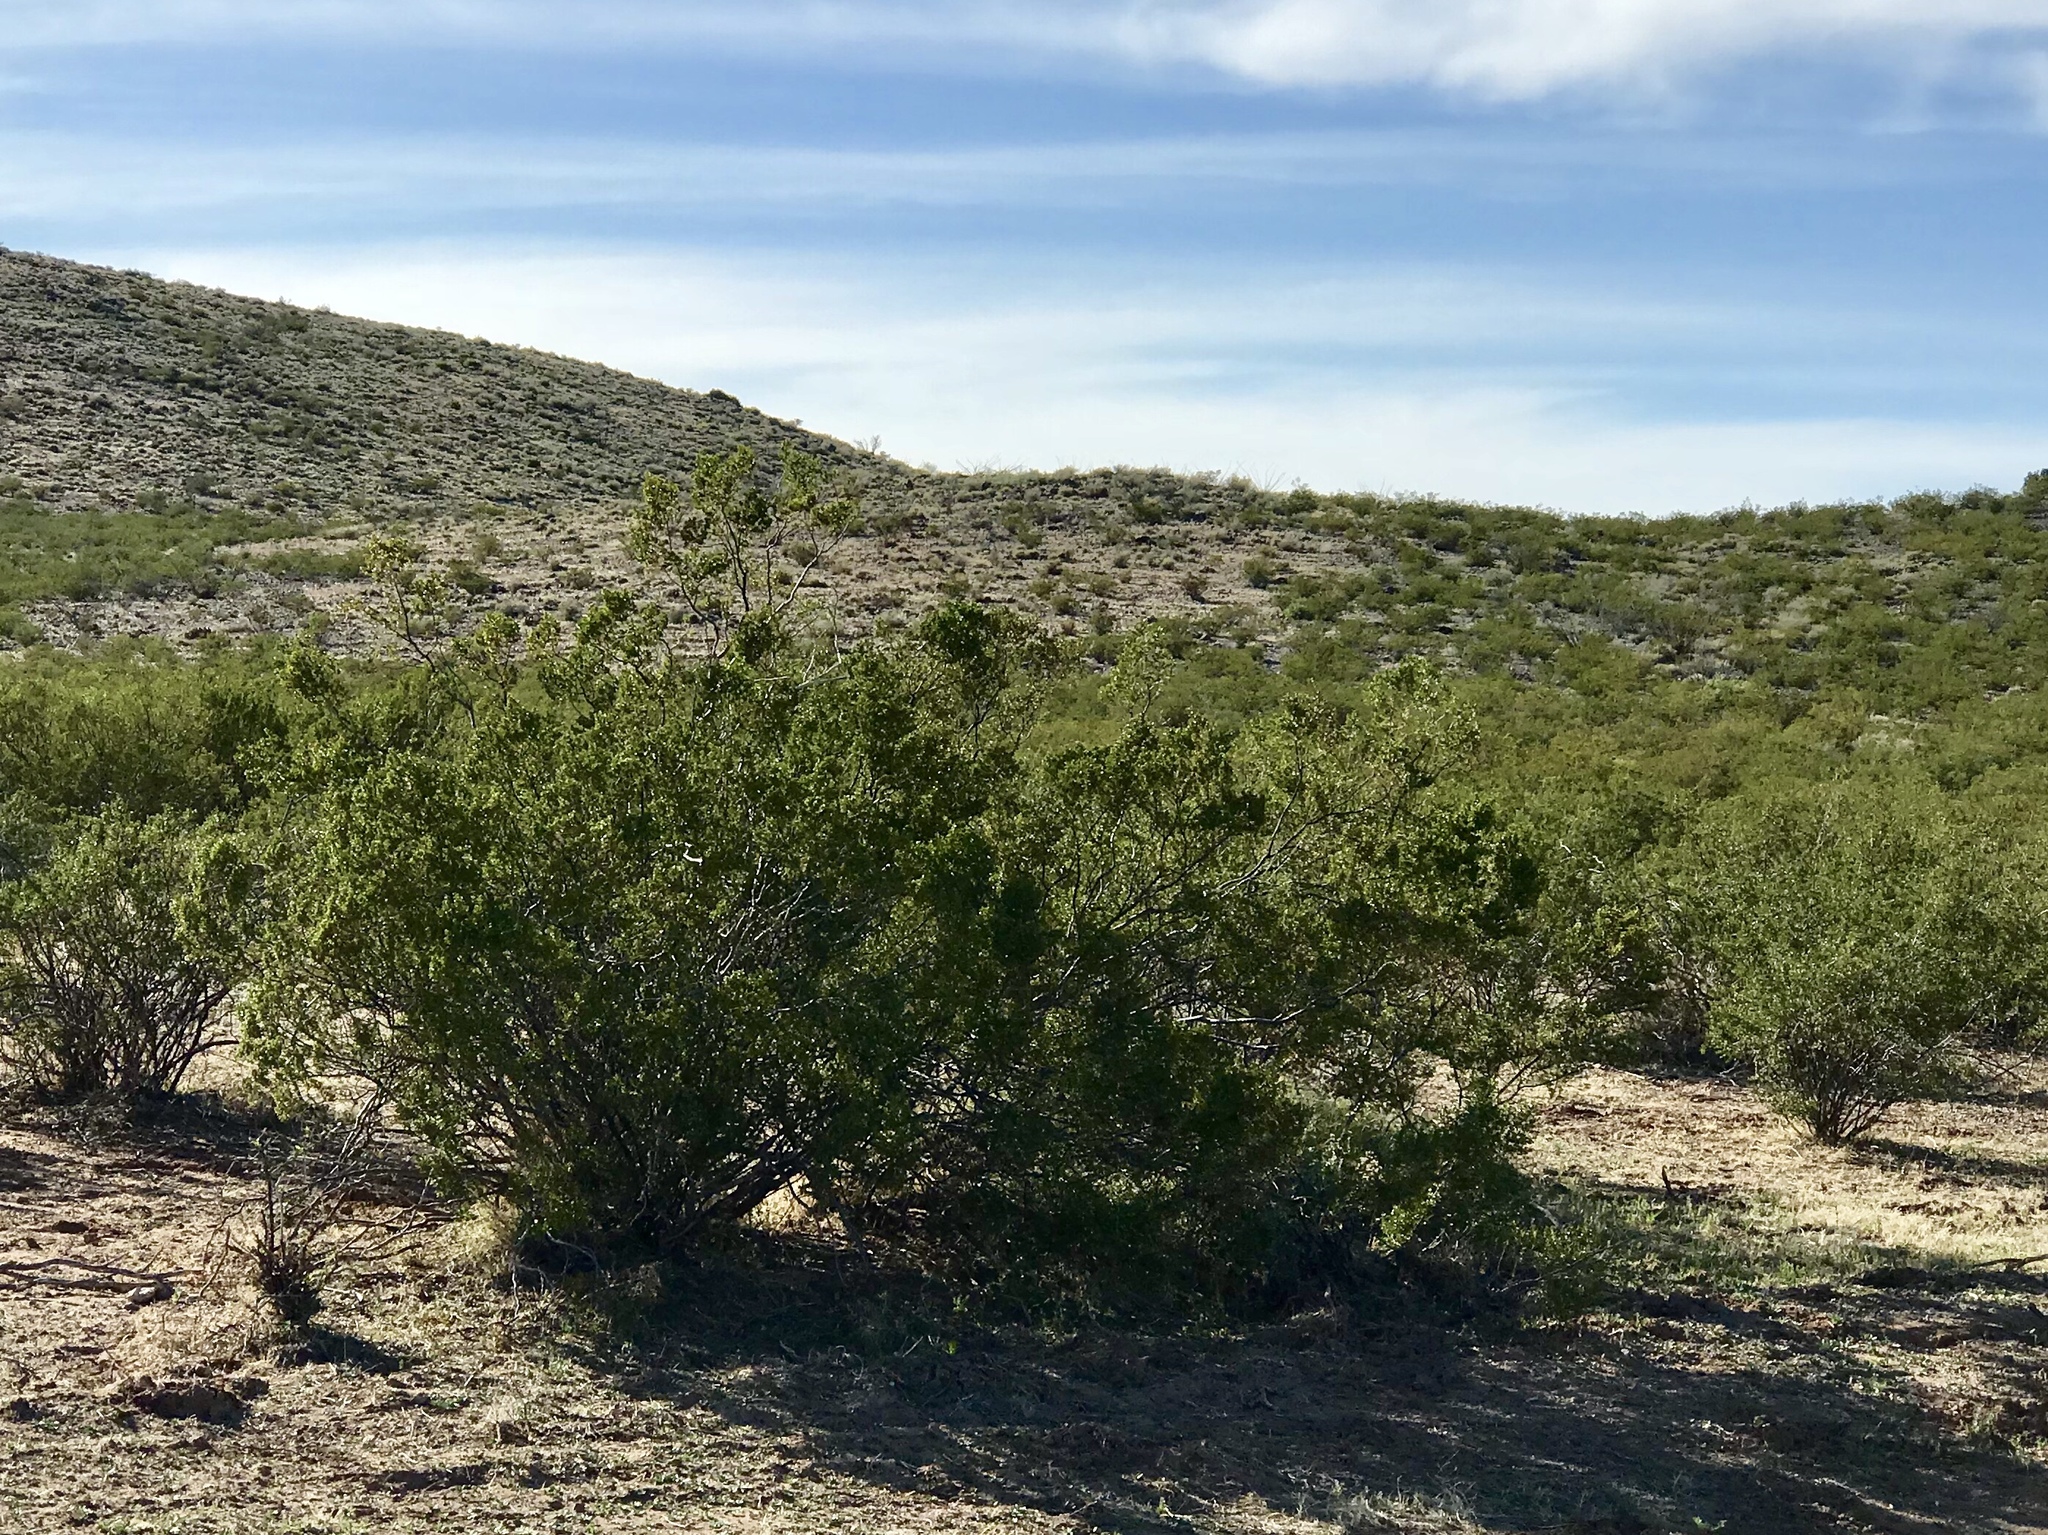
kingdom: Plantae
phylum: Tracheophyta
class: Magnoliopsida
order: Zygophyllales
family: Zygophyllaceae
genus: Larrea
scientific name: Larrea tridentata
